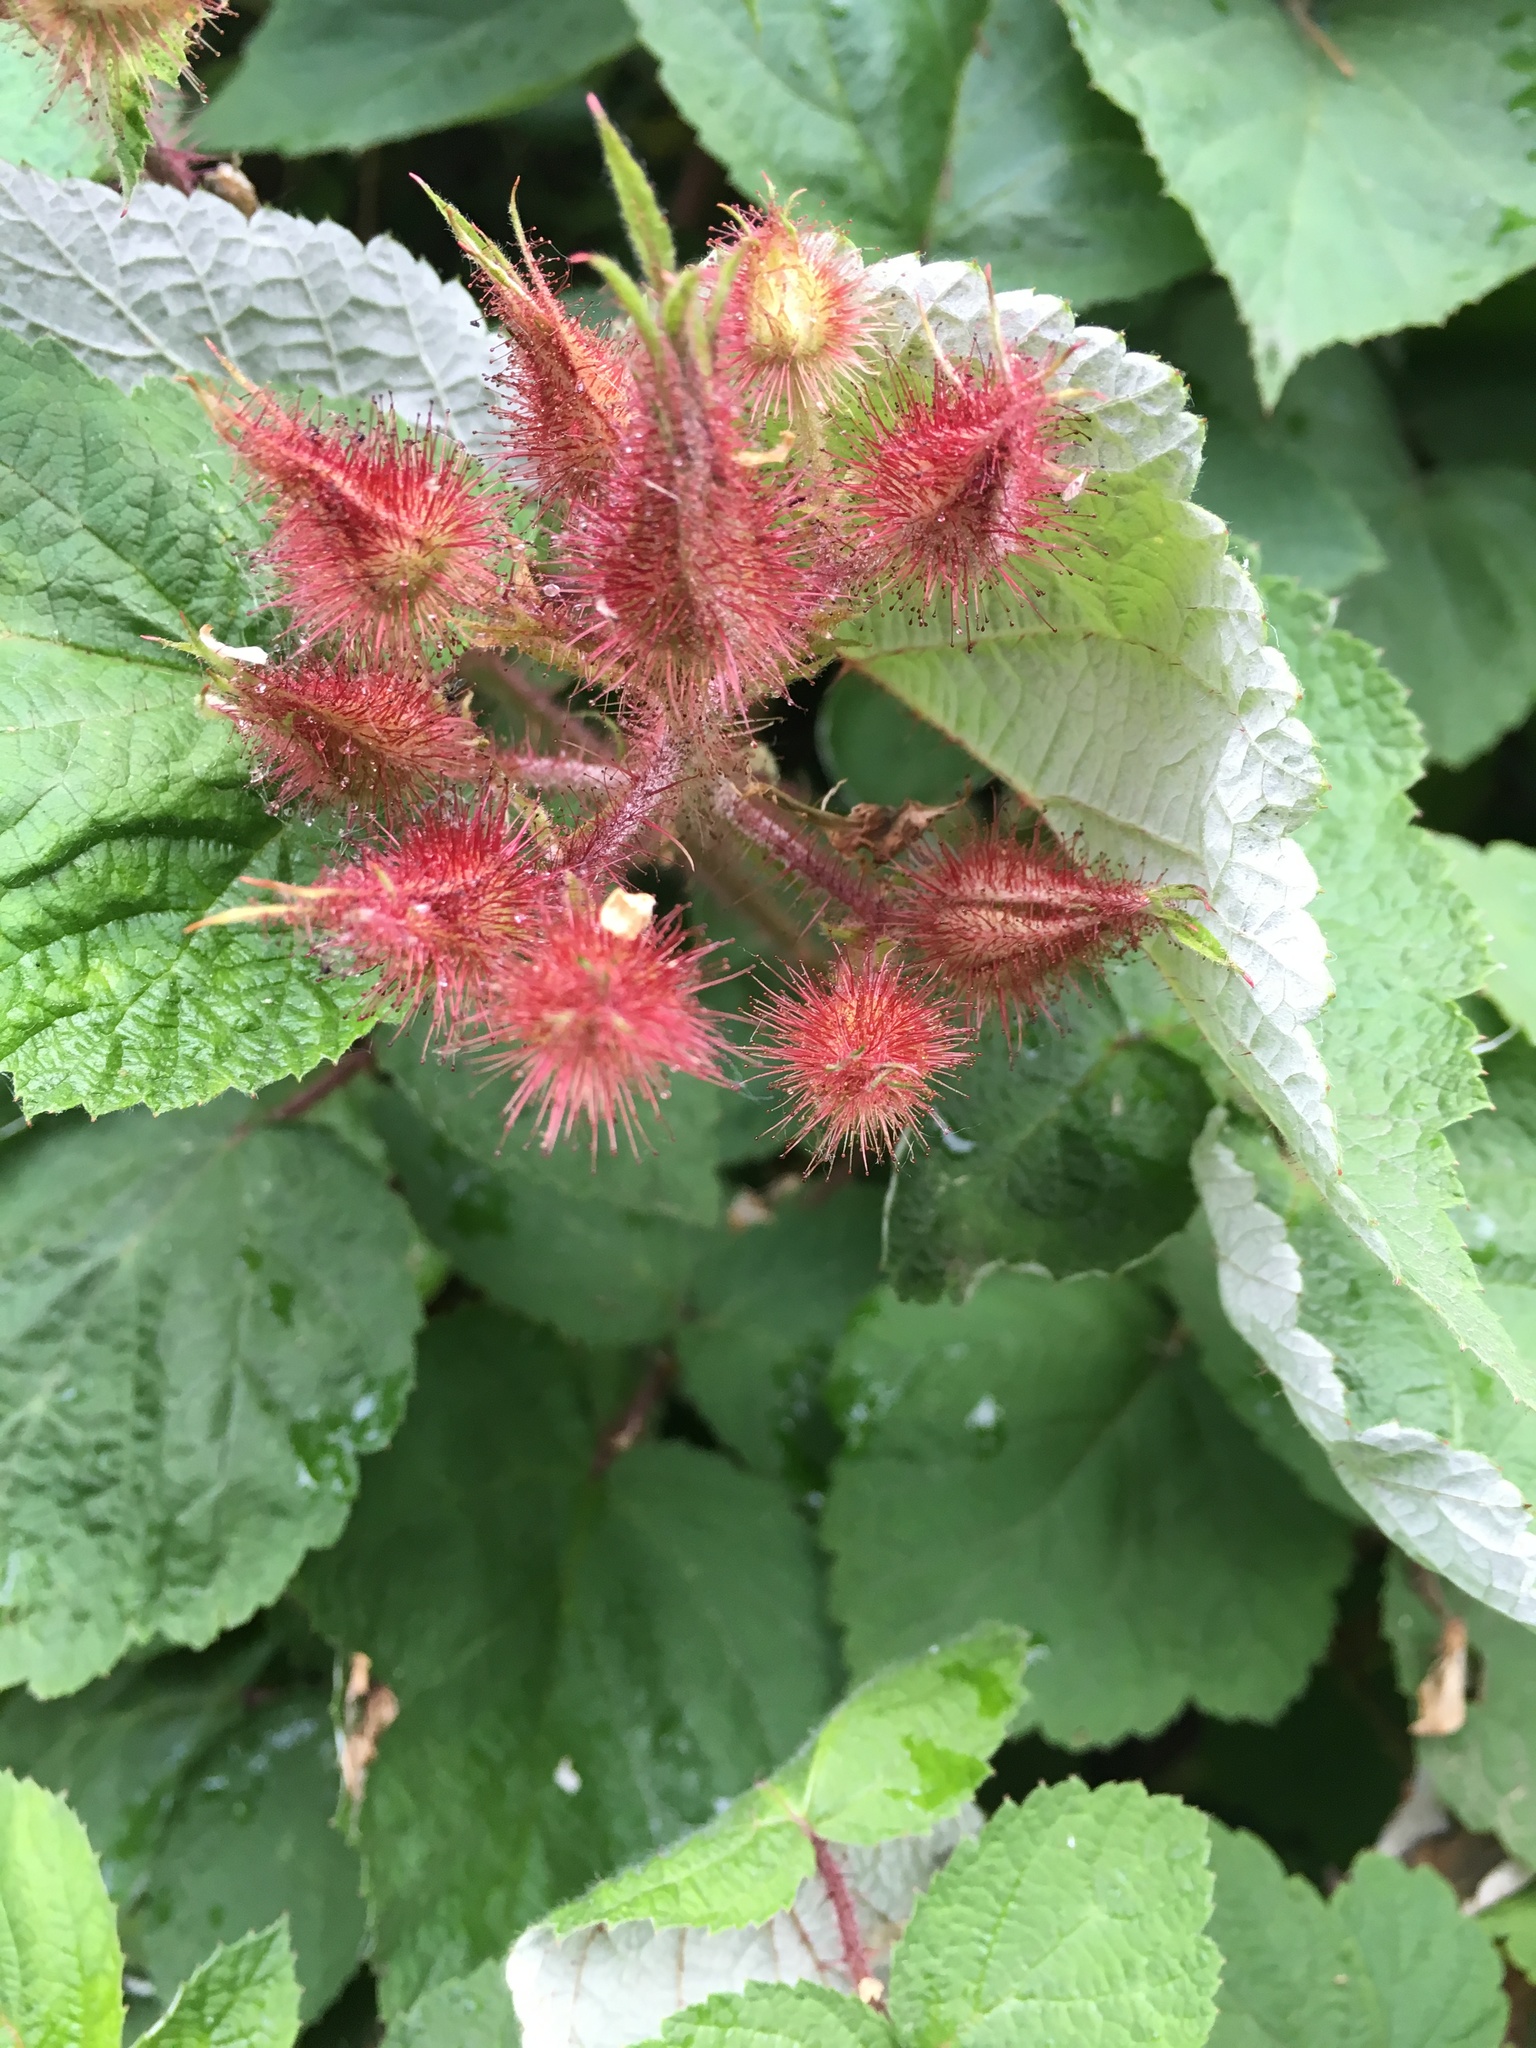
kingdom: Plantae
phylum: Tracheophyta
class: Magnoliopsida
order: Rosales
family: Rosaceae
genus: Rubus
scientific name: Rubus phoenicolasius
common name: Japanese wineberry
